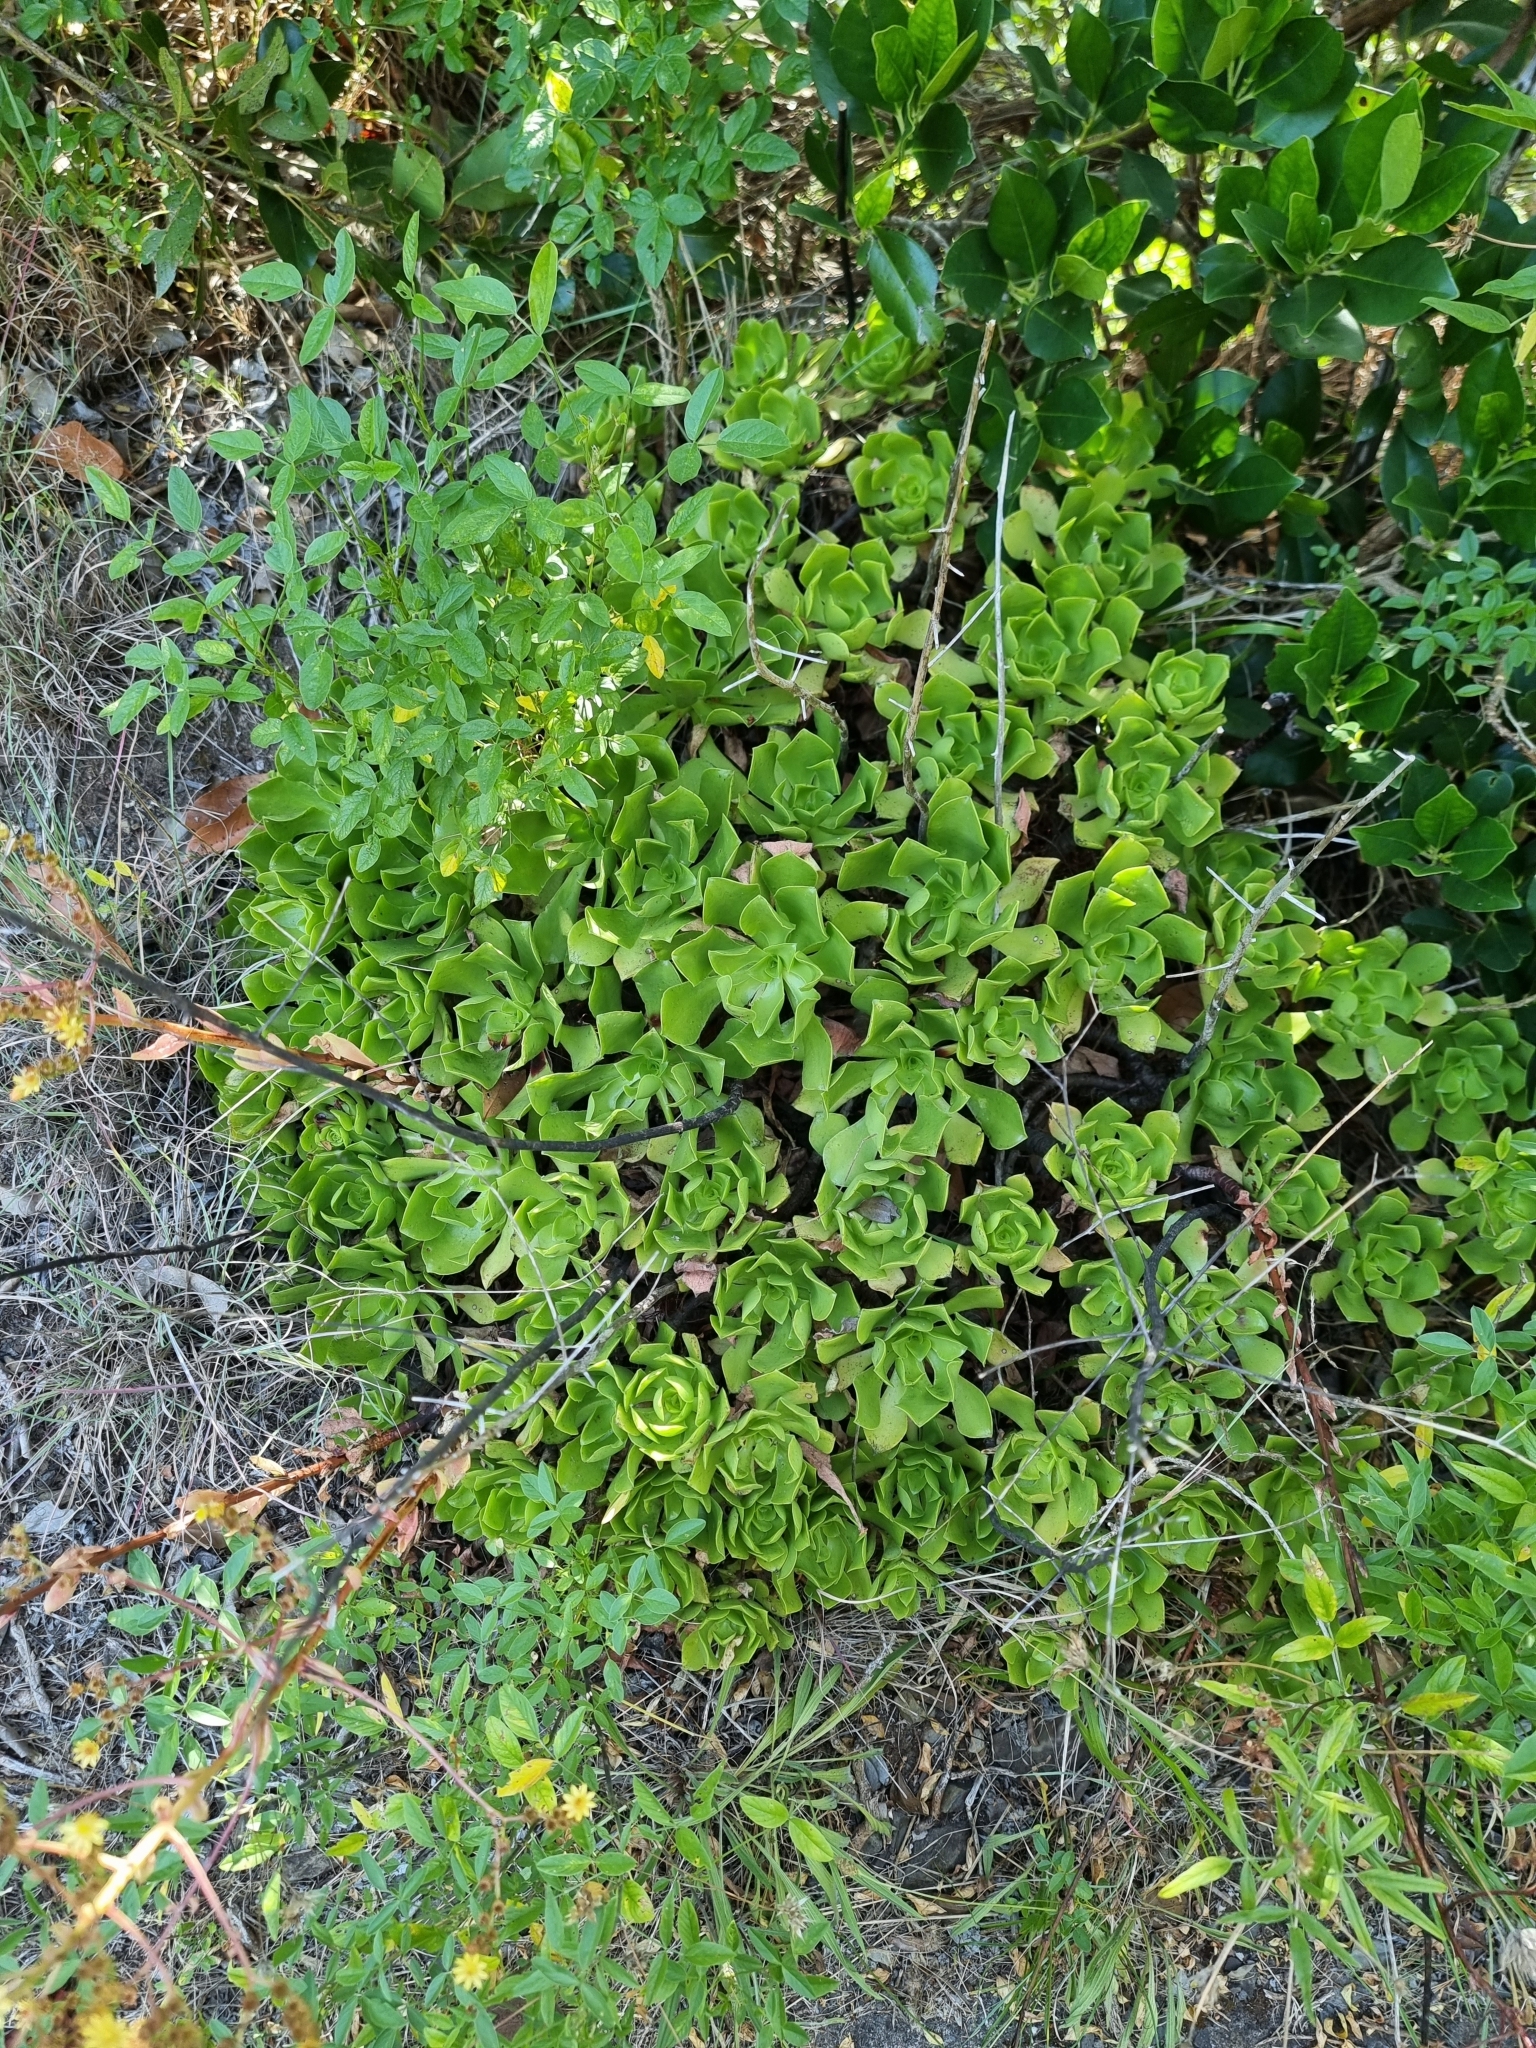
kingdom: Plantae
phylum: Tracheophyta
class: Magnoliopsida
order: Saxifragales
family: Crassulaceae
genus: Aeonium
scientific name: Aeonium glutinosum
